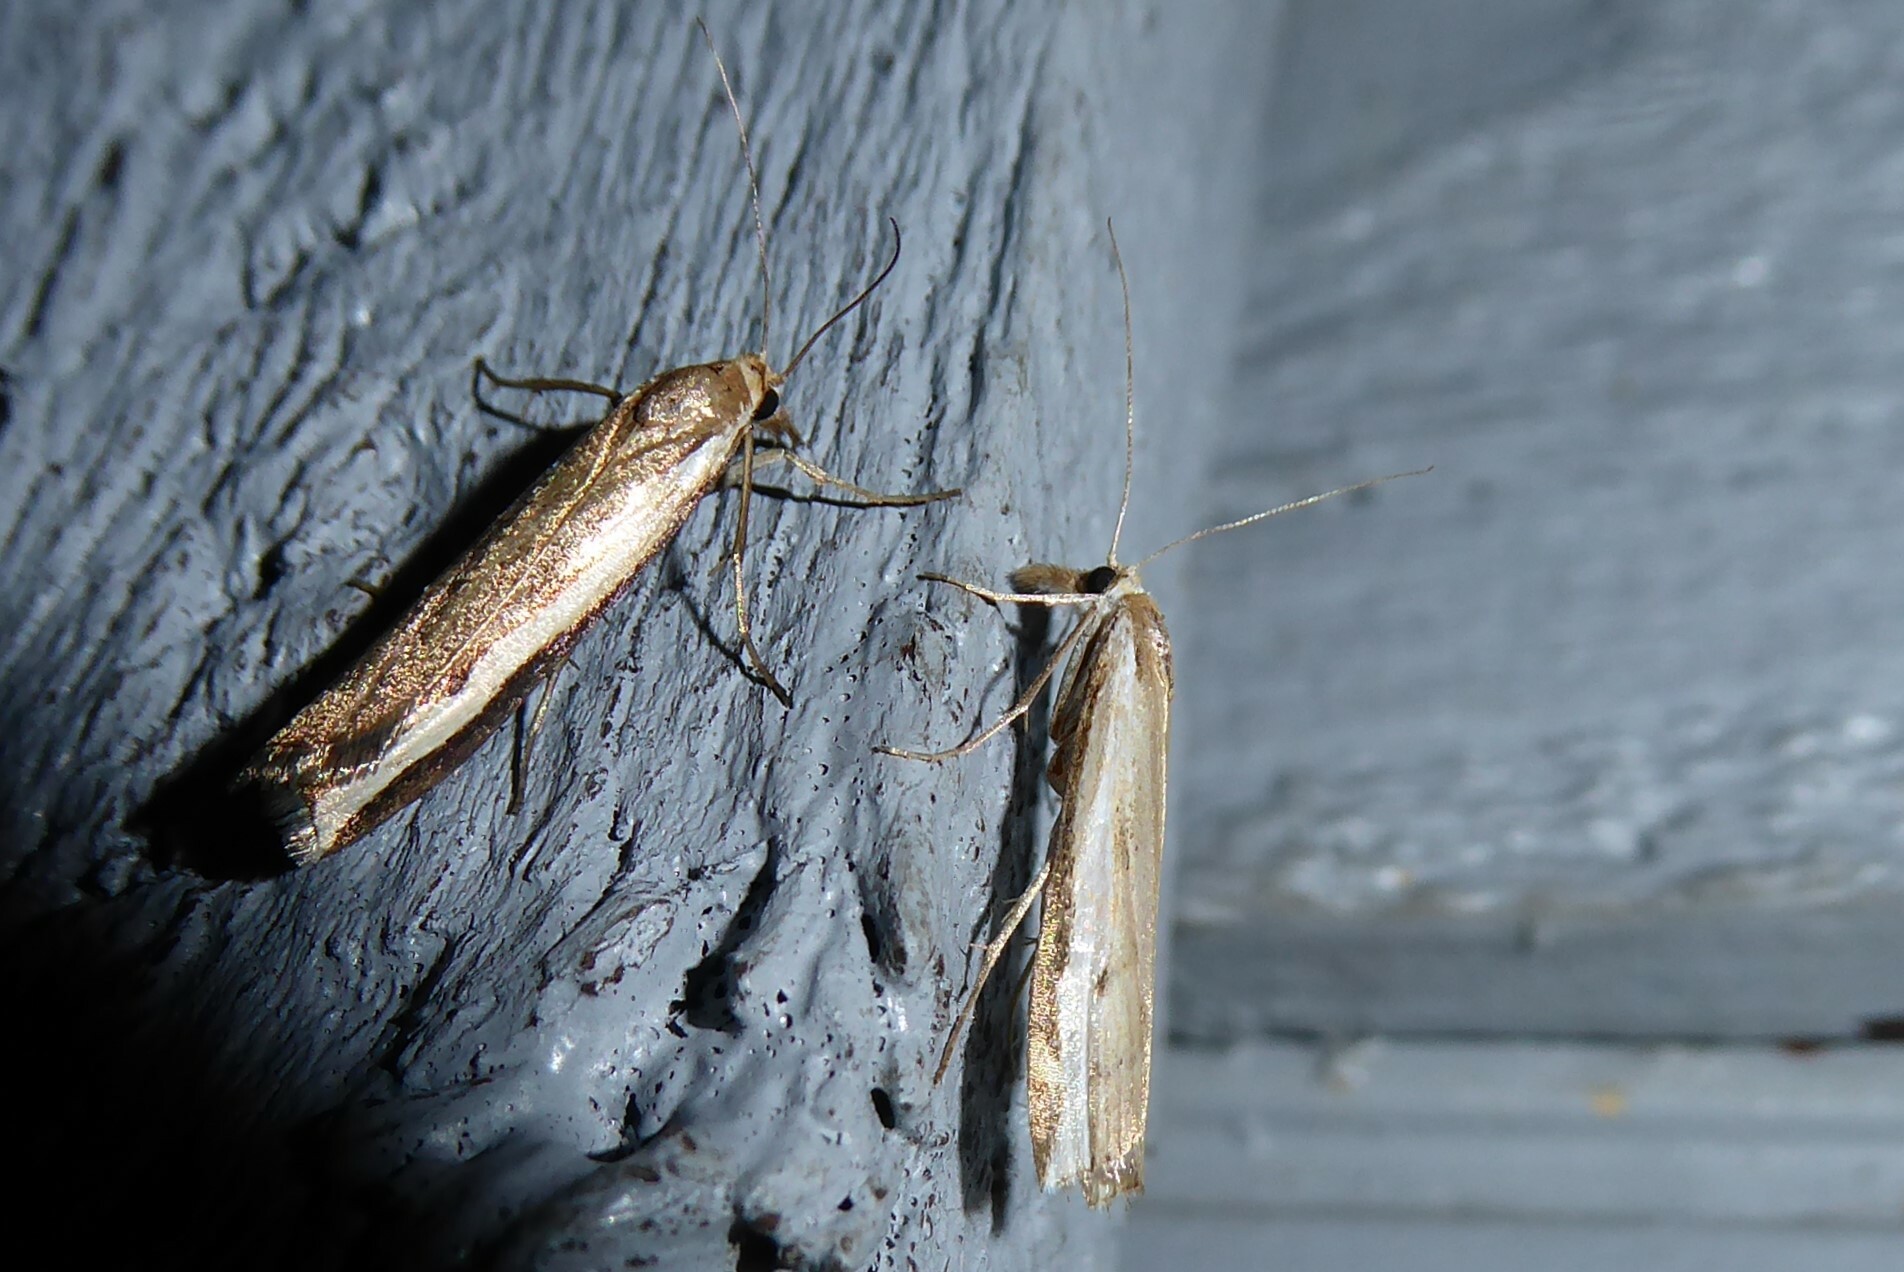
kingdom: Animalia
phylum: Arthropoda
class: Insecta
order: Lepidoptera
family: Crambidae
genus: Orocrambus
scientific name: Orocrambus flexuosellus
